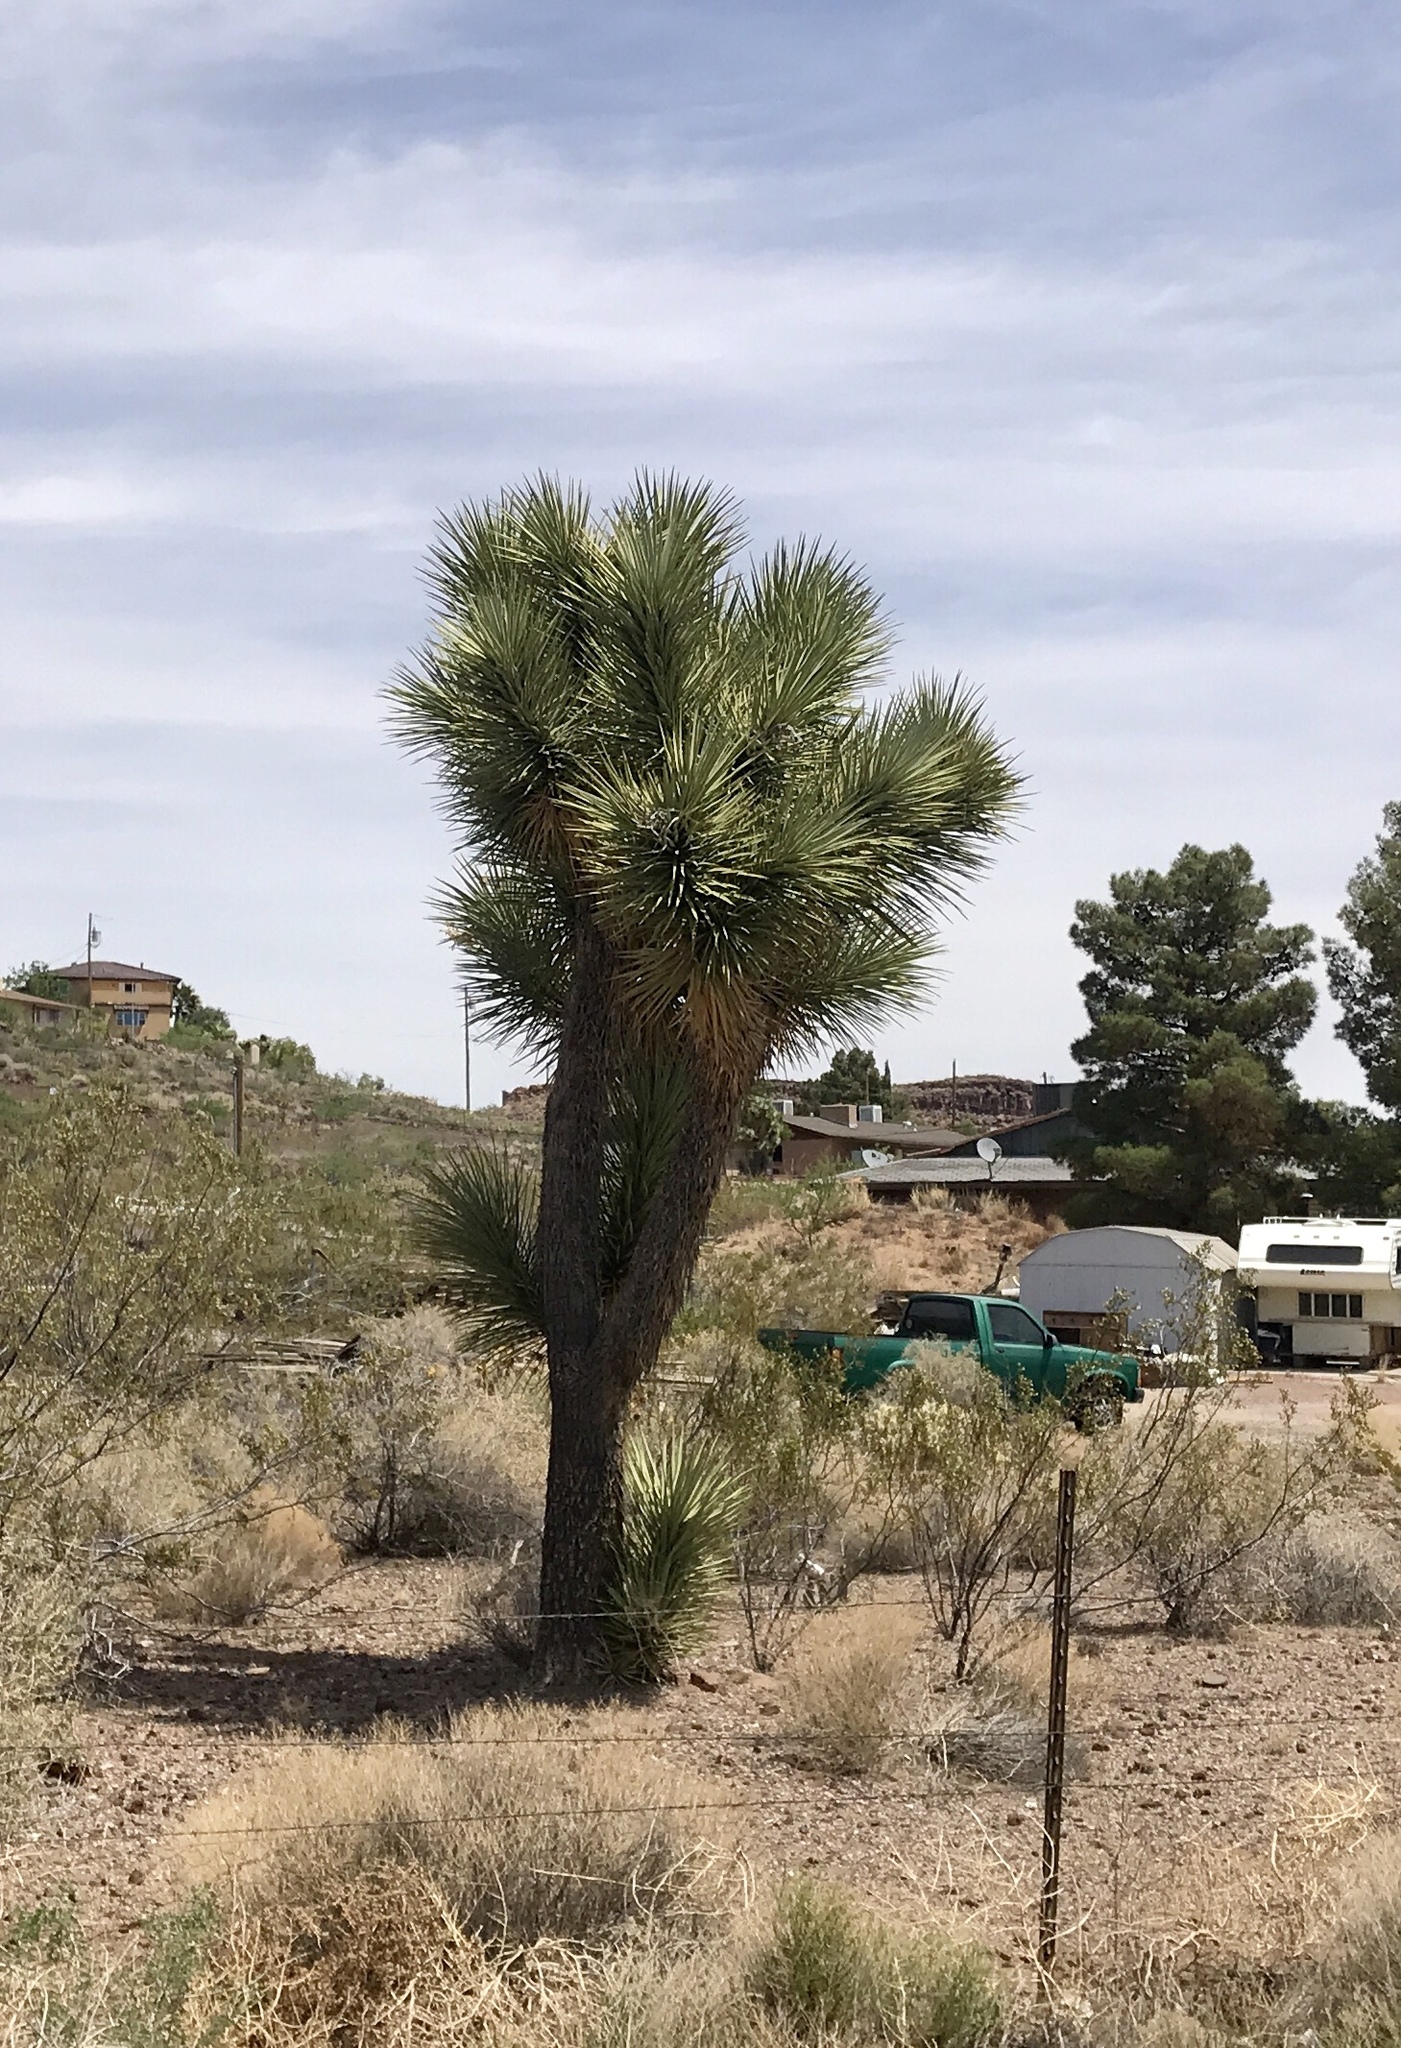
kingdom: Plantae
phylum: Tracheophyta
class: Liliopsida
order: Asparagales
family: Asparagaceae
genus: Yucca
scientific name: Yucca brevifolia
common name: Joshua tree
